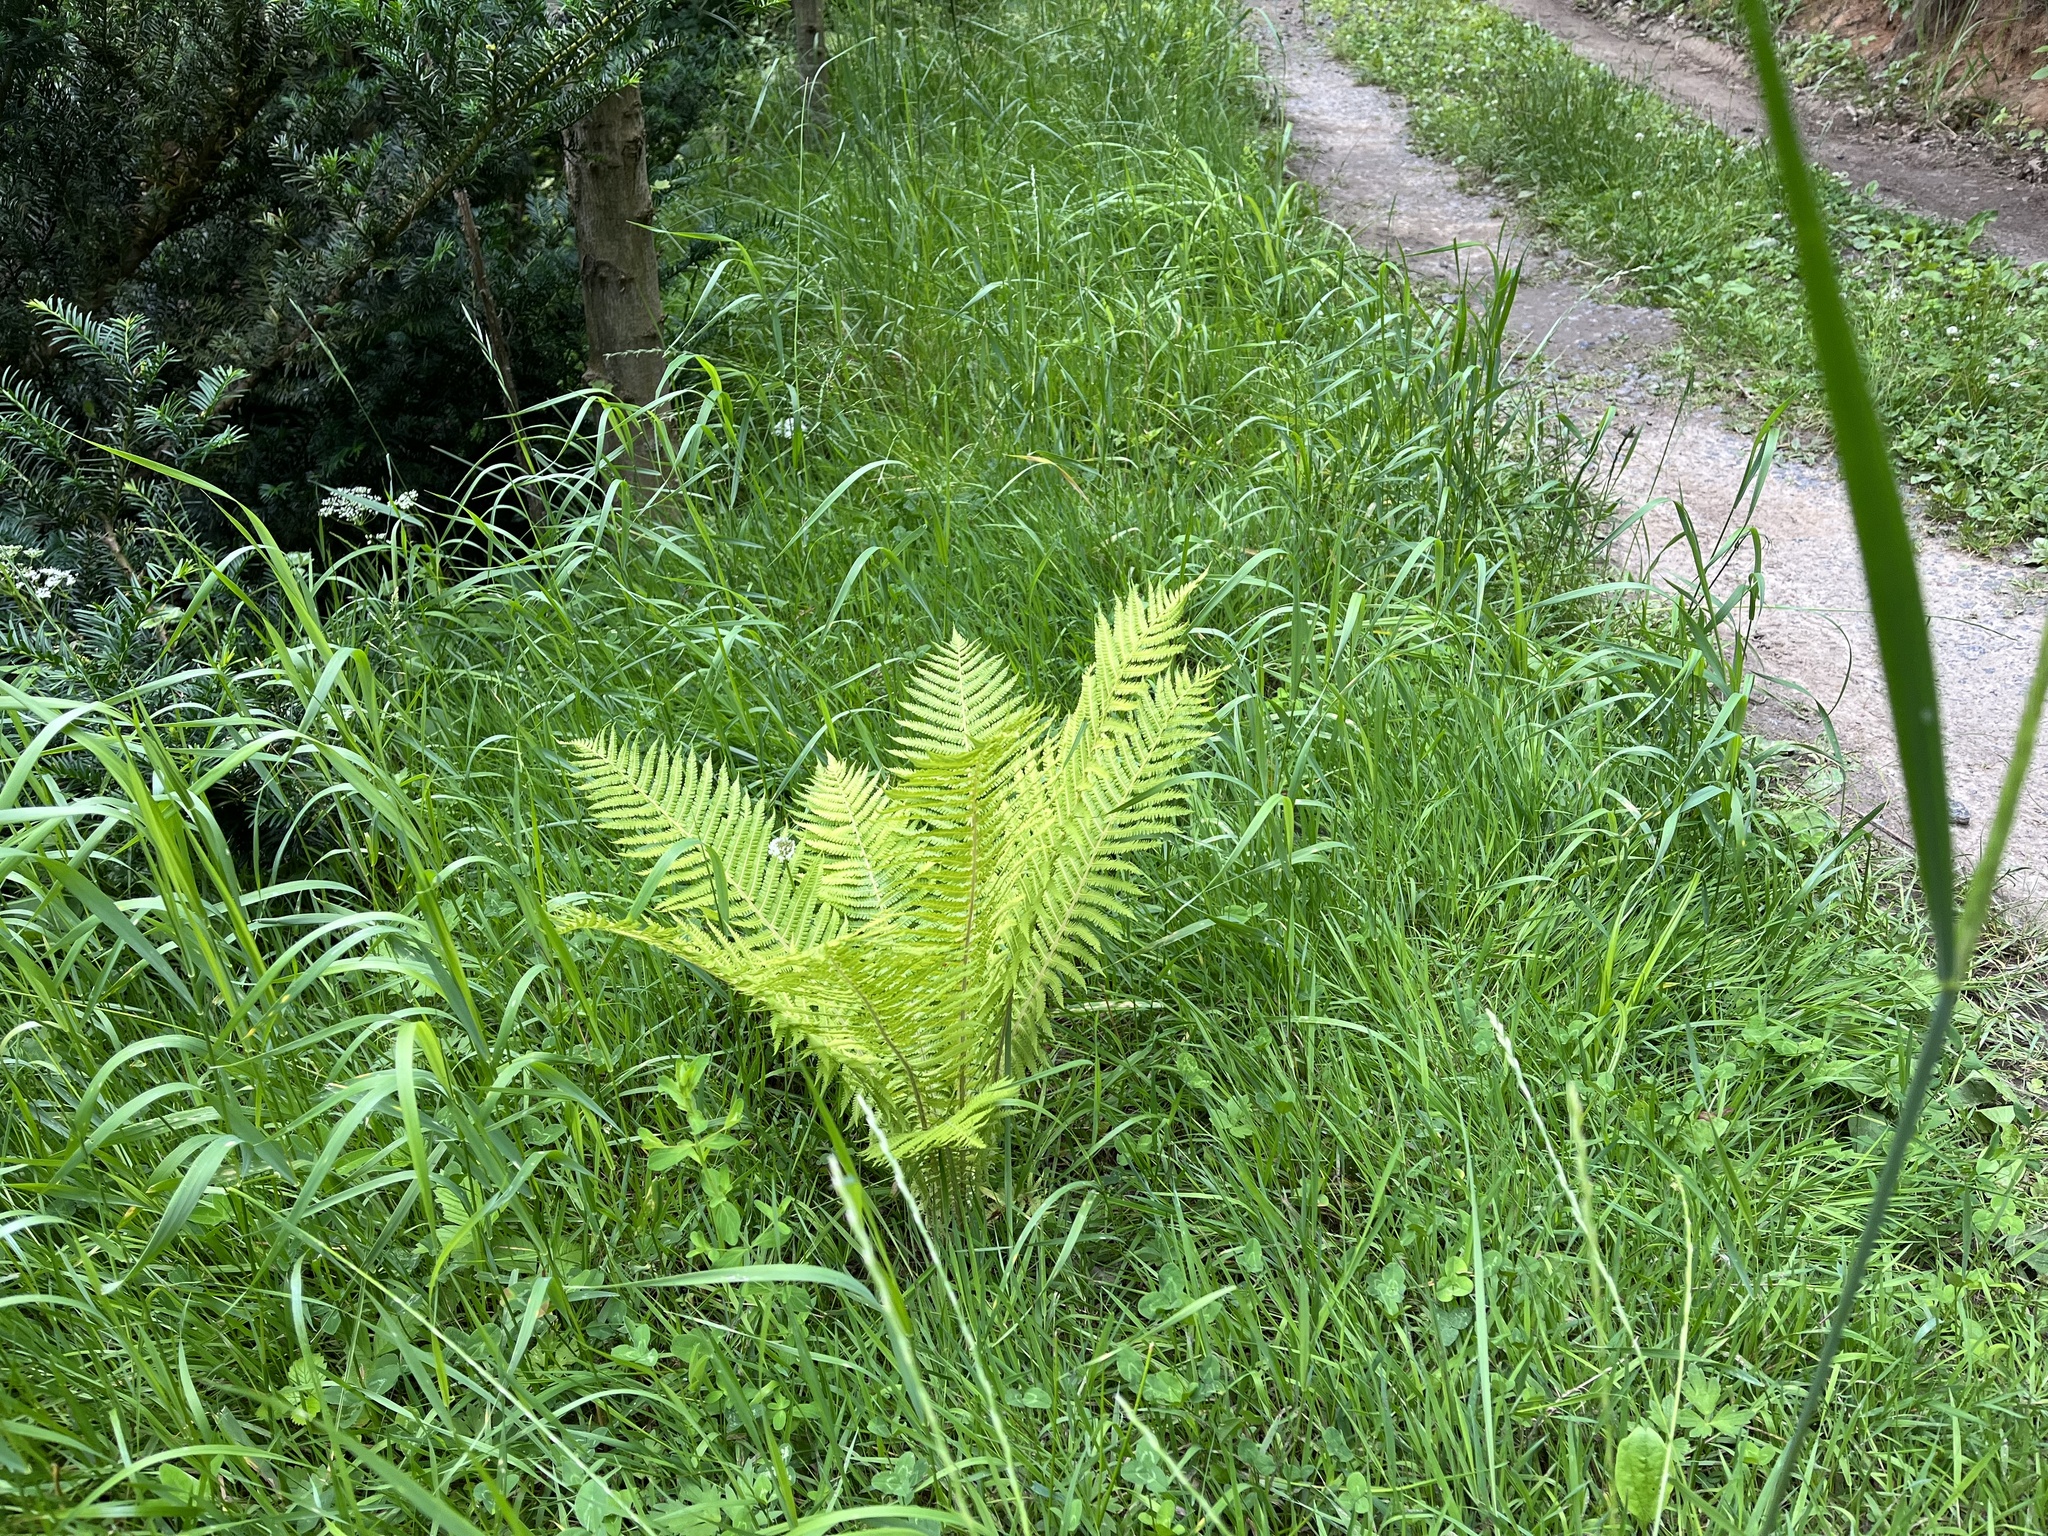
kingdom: Plantae
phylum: Tracheophyta
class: Polypodiopsida
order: Polypodiales
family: Onocleaceae
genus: Matteuccia
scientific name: Matteuccia struthiopteris
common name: Ostrich fern
